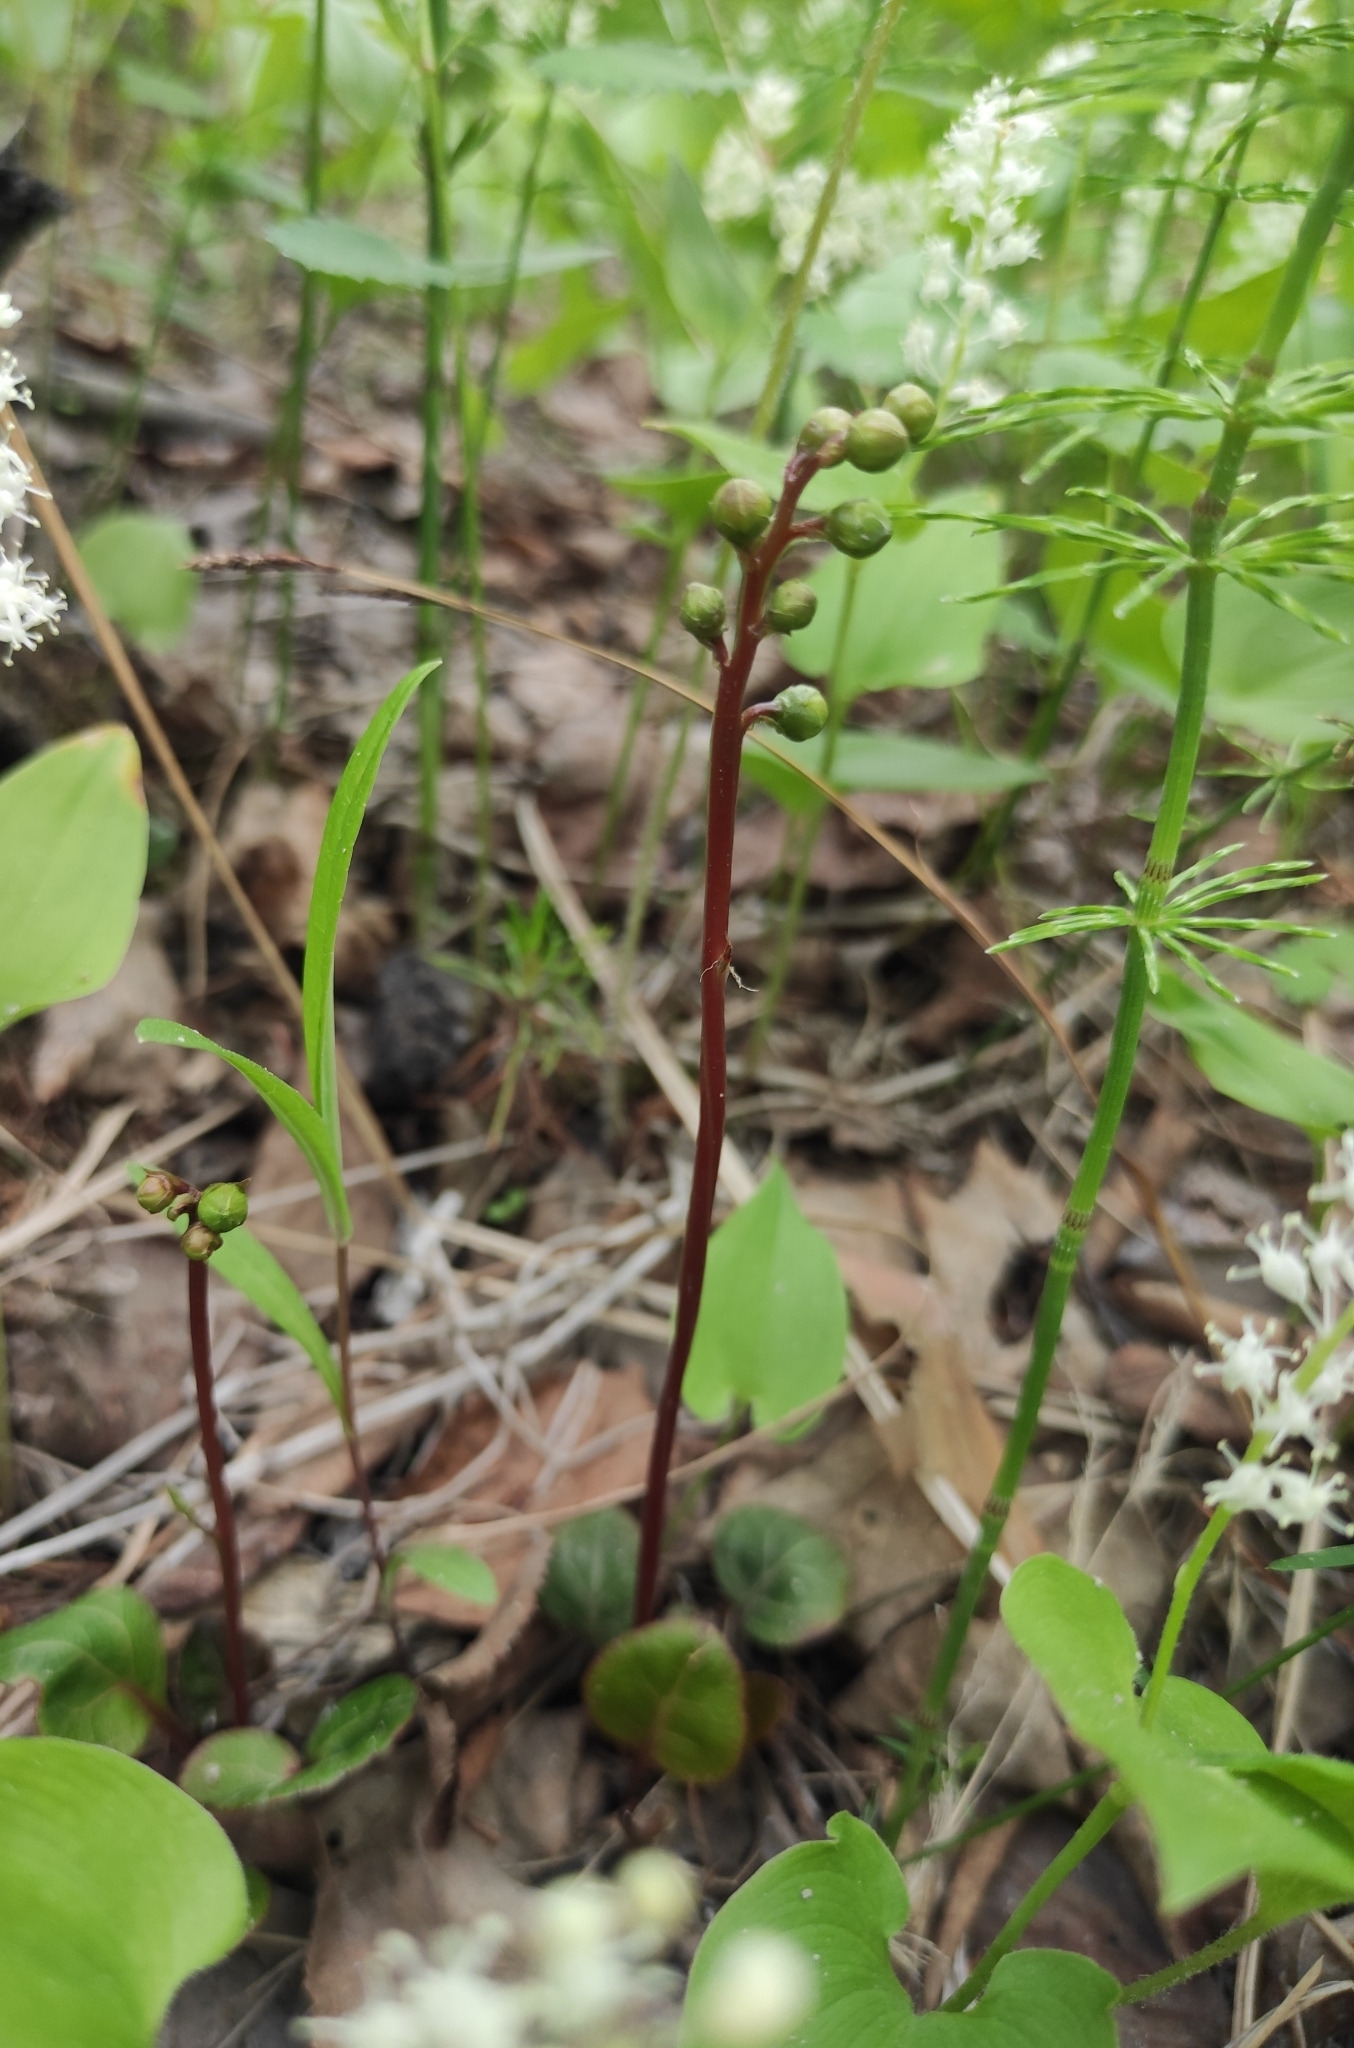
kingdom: Plantae
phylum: Tracheophyta
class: Magnoliopsida
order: Ericales
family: Ericaceae
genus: Pyrola
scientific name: Pyrola chlorantha
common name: Green wintergreen
